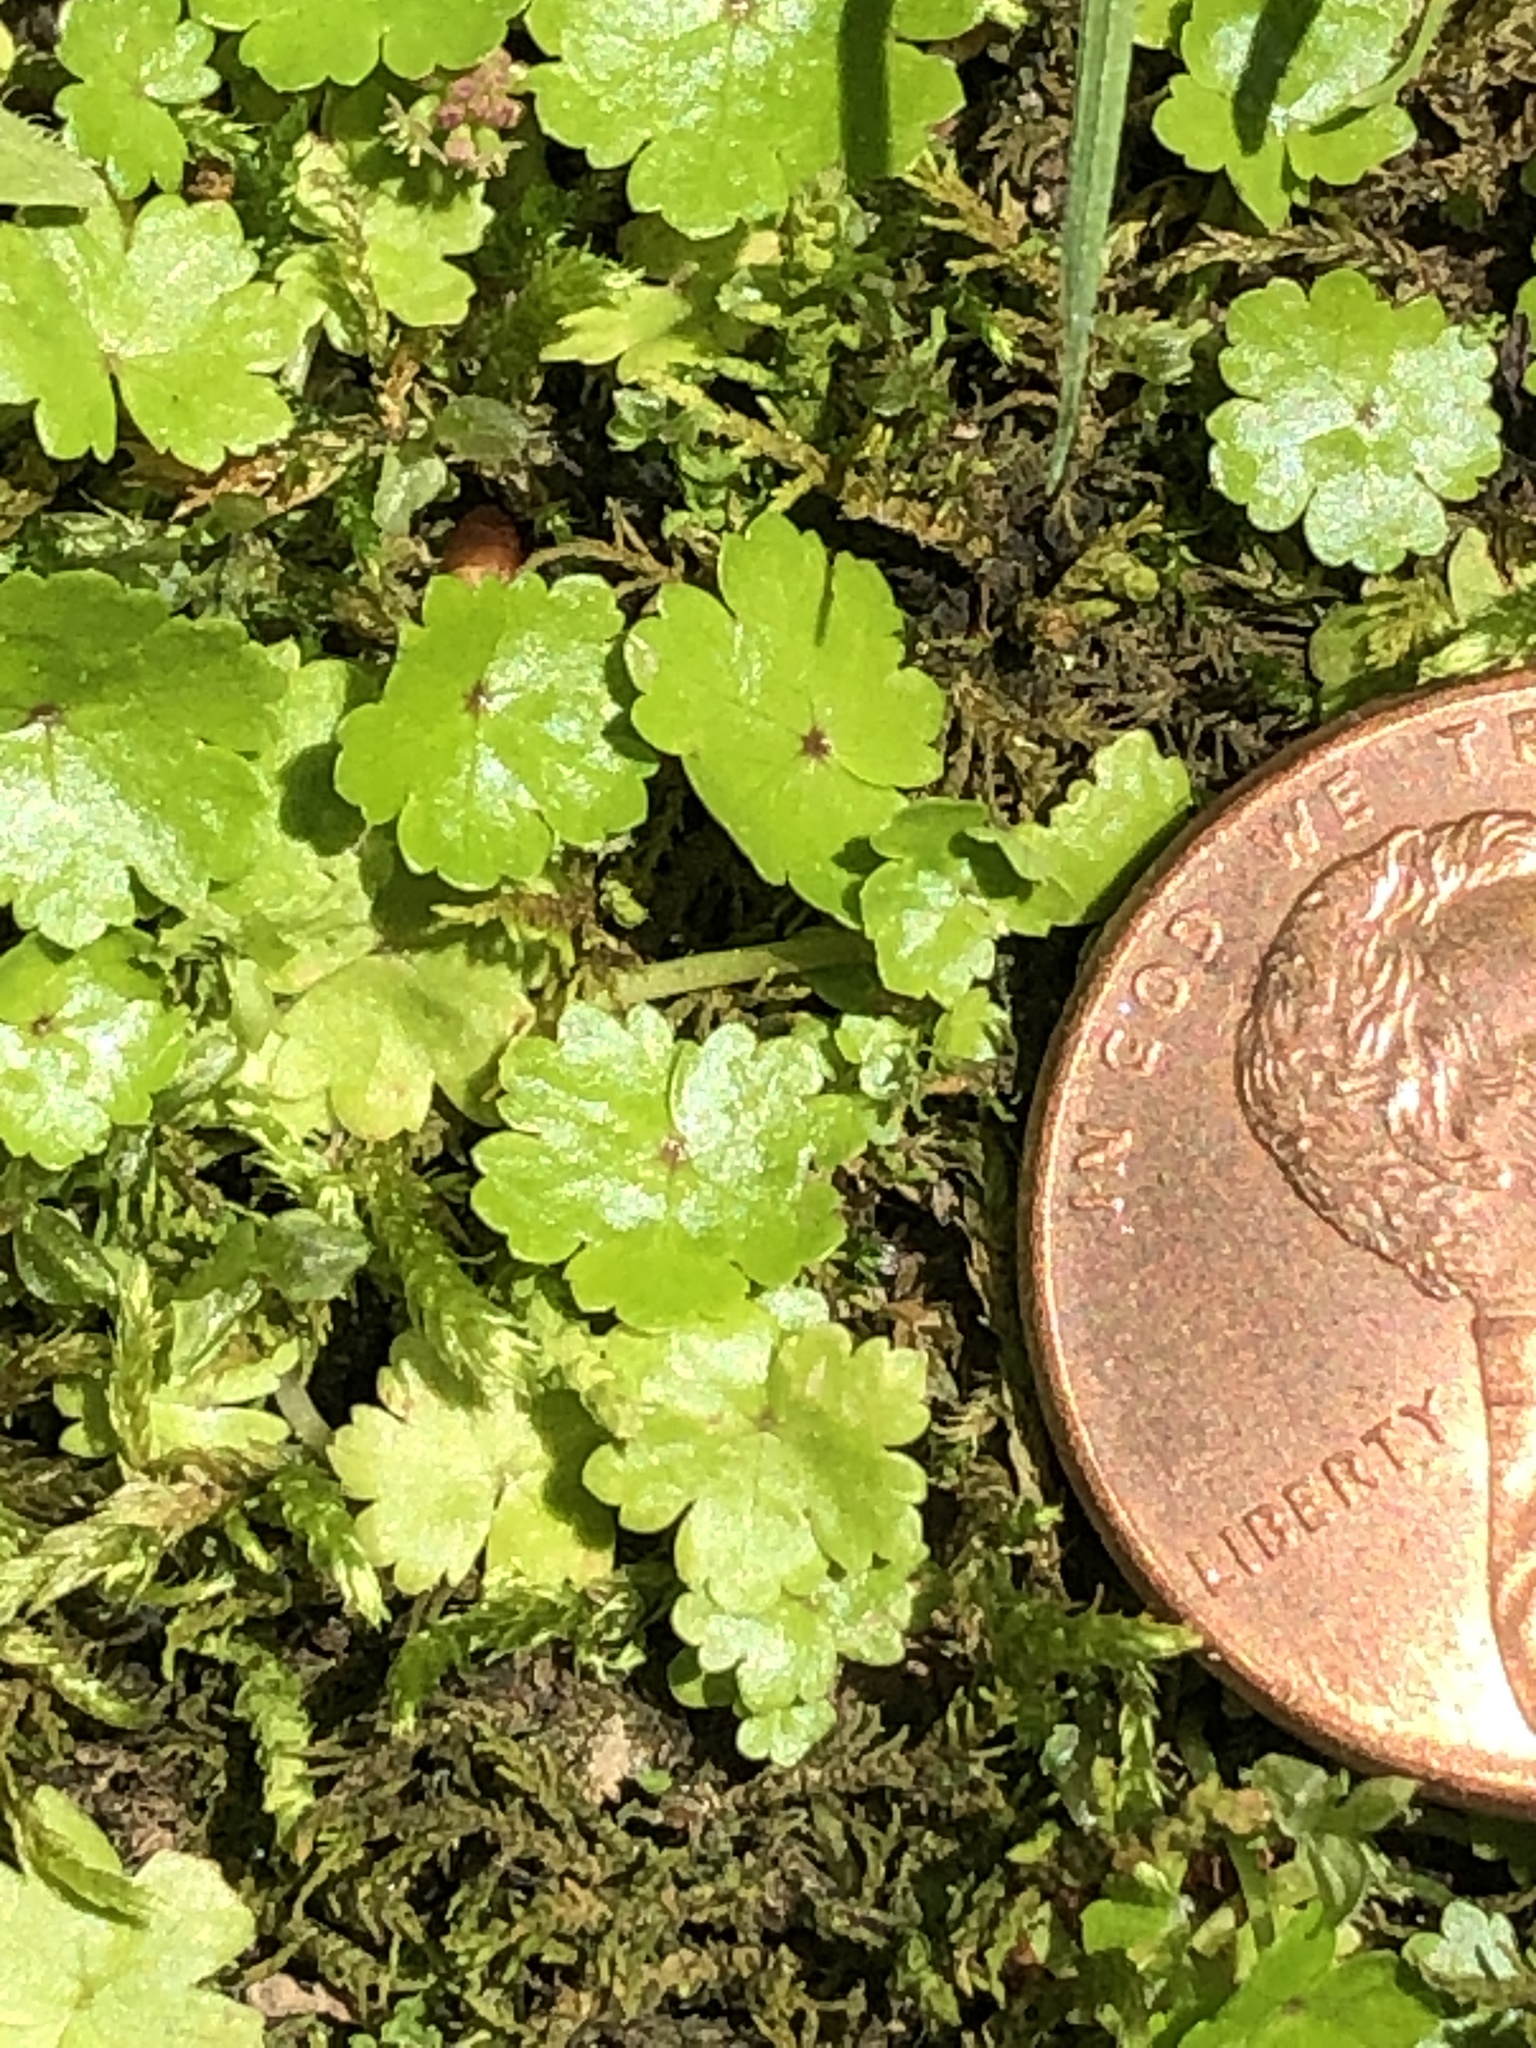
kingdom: Plantae
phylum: Tracheophyta
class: Magnoliopsida
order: Apiales
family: Araliaceae
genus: Hydrocotyle
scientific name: Hydrocotyle sibthorpioides
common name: Lawn marshpennywort
